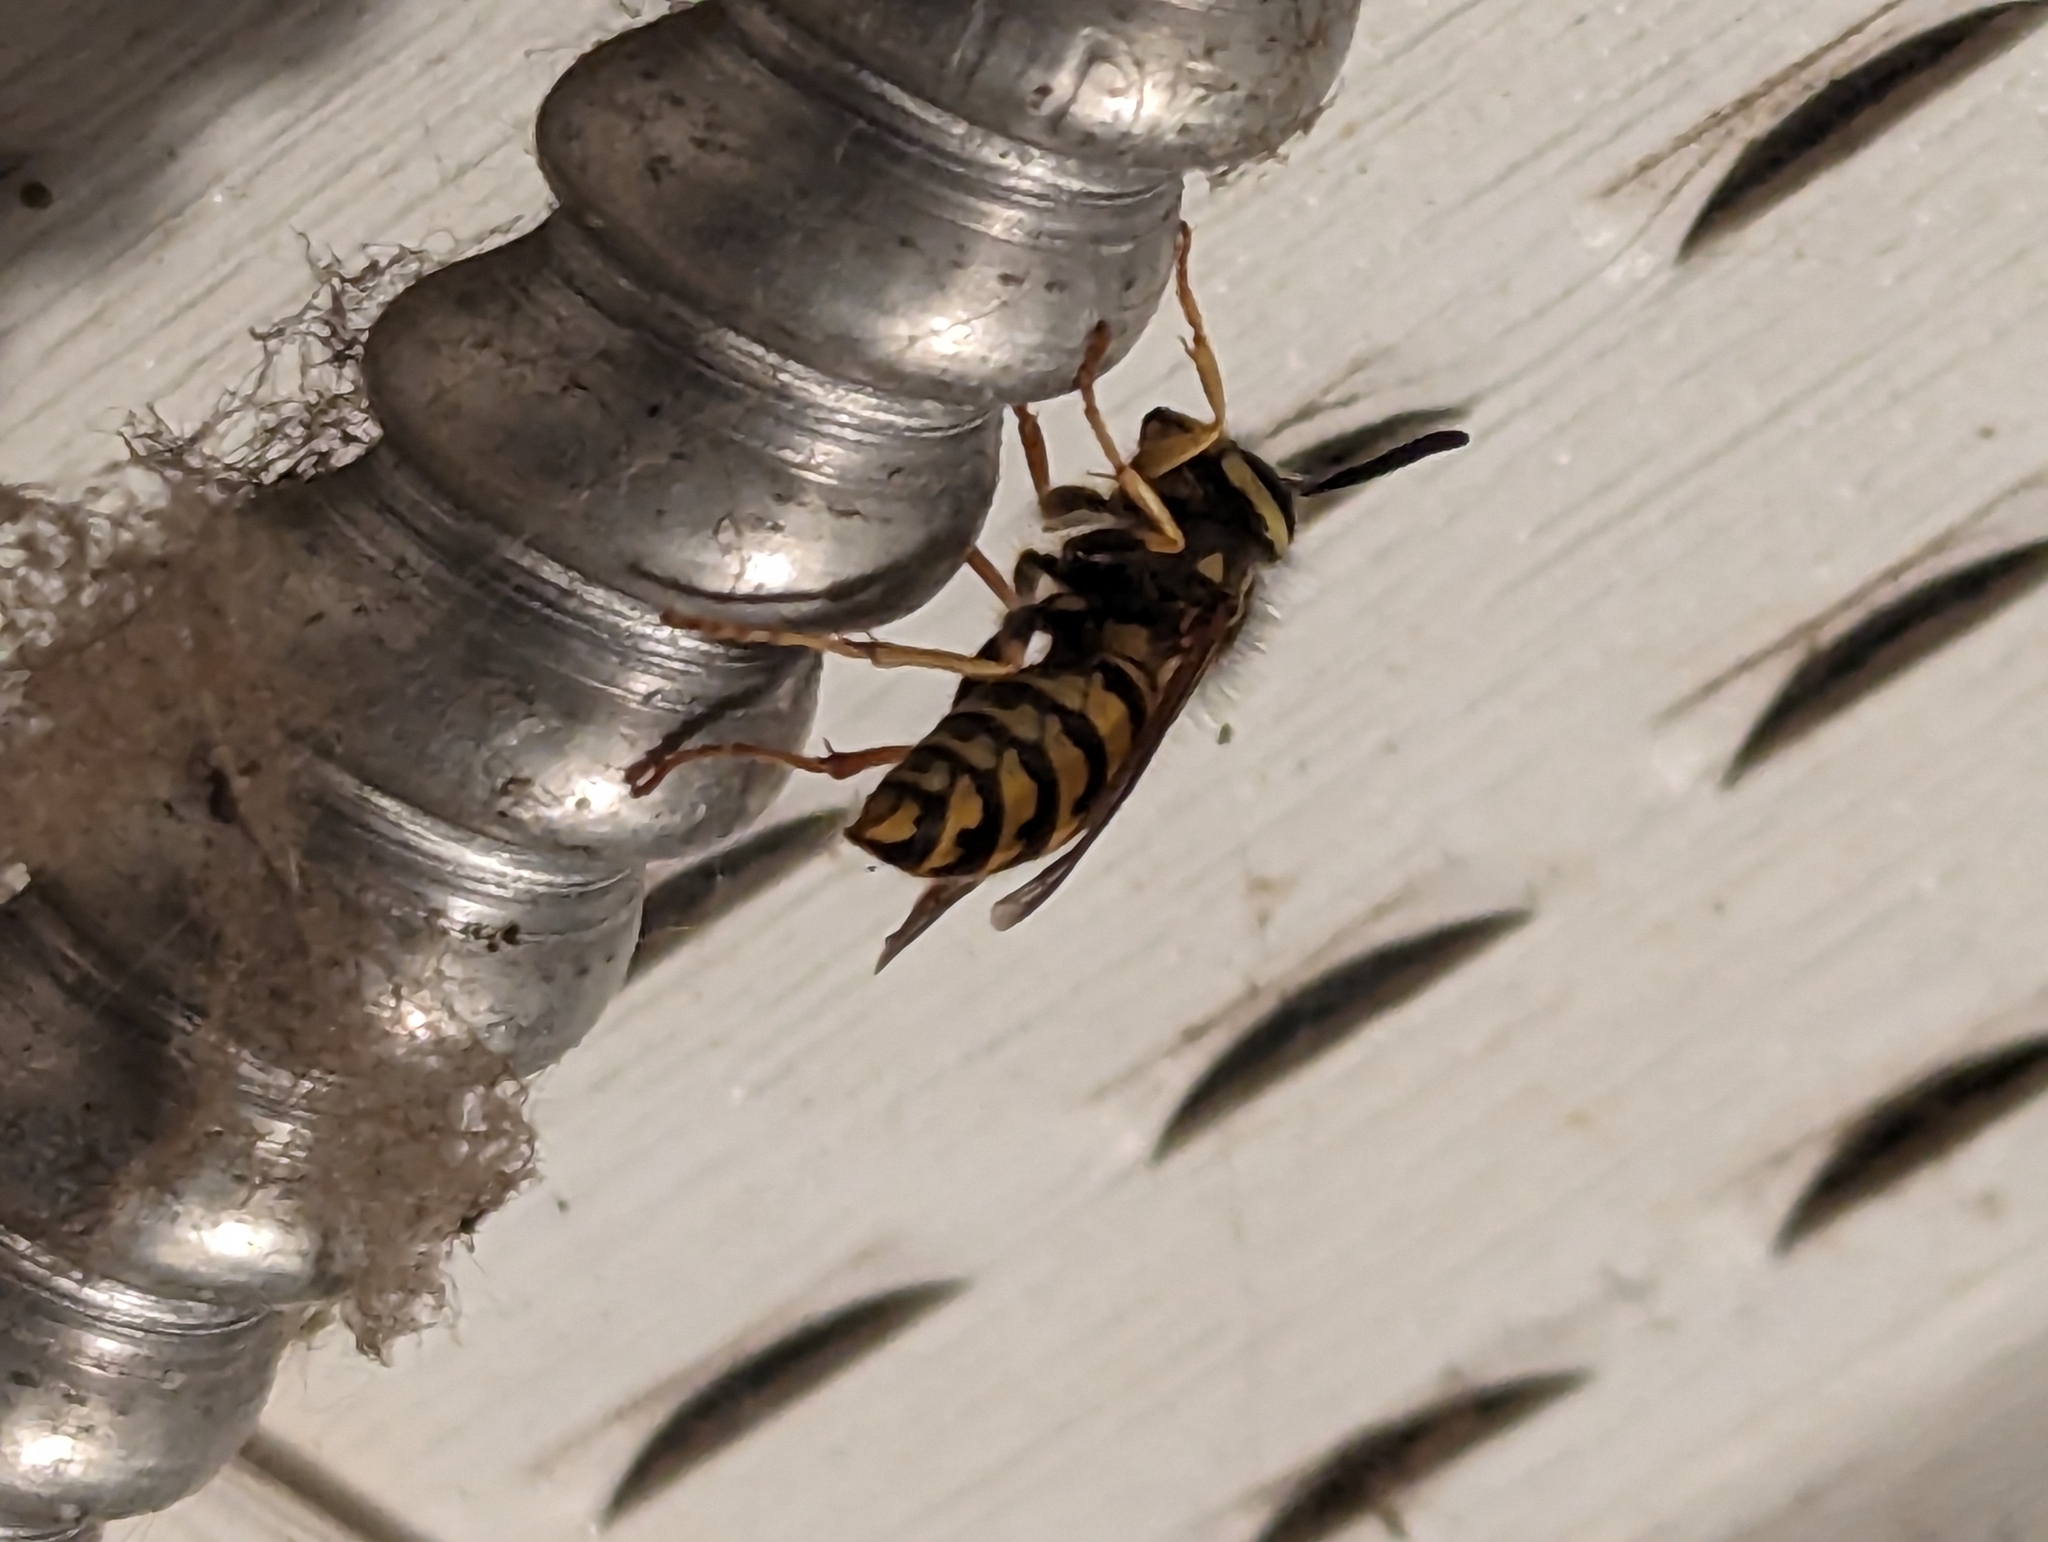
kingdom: Animalia
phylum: Arthropoda
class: Insecta
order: Hymenoptera
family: Vespidae
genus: Vespula
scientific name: Vespula germanica
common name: German wasp
